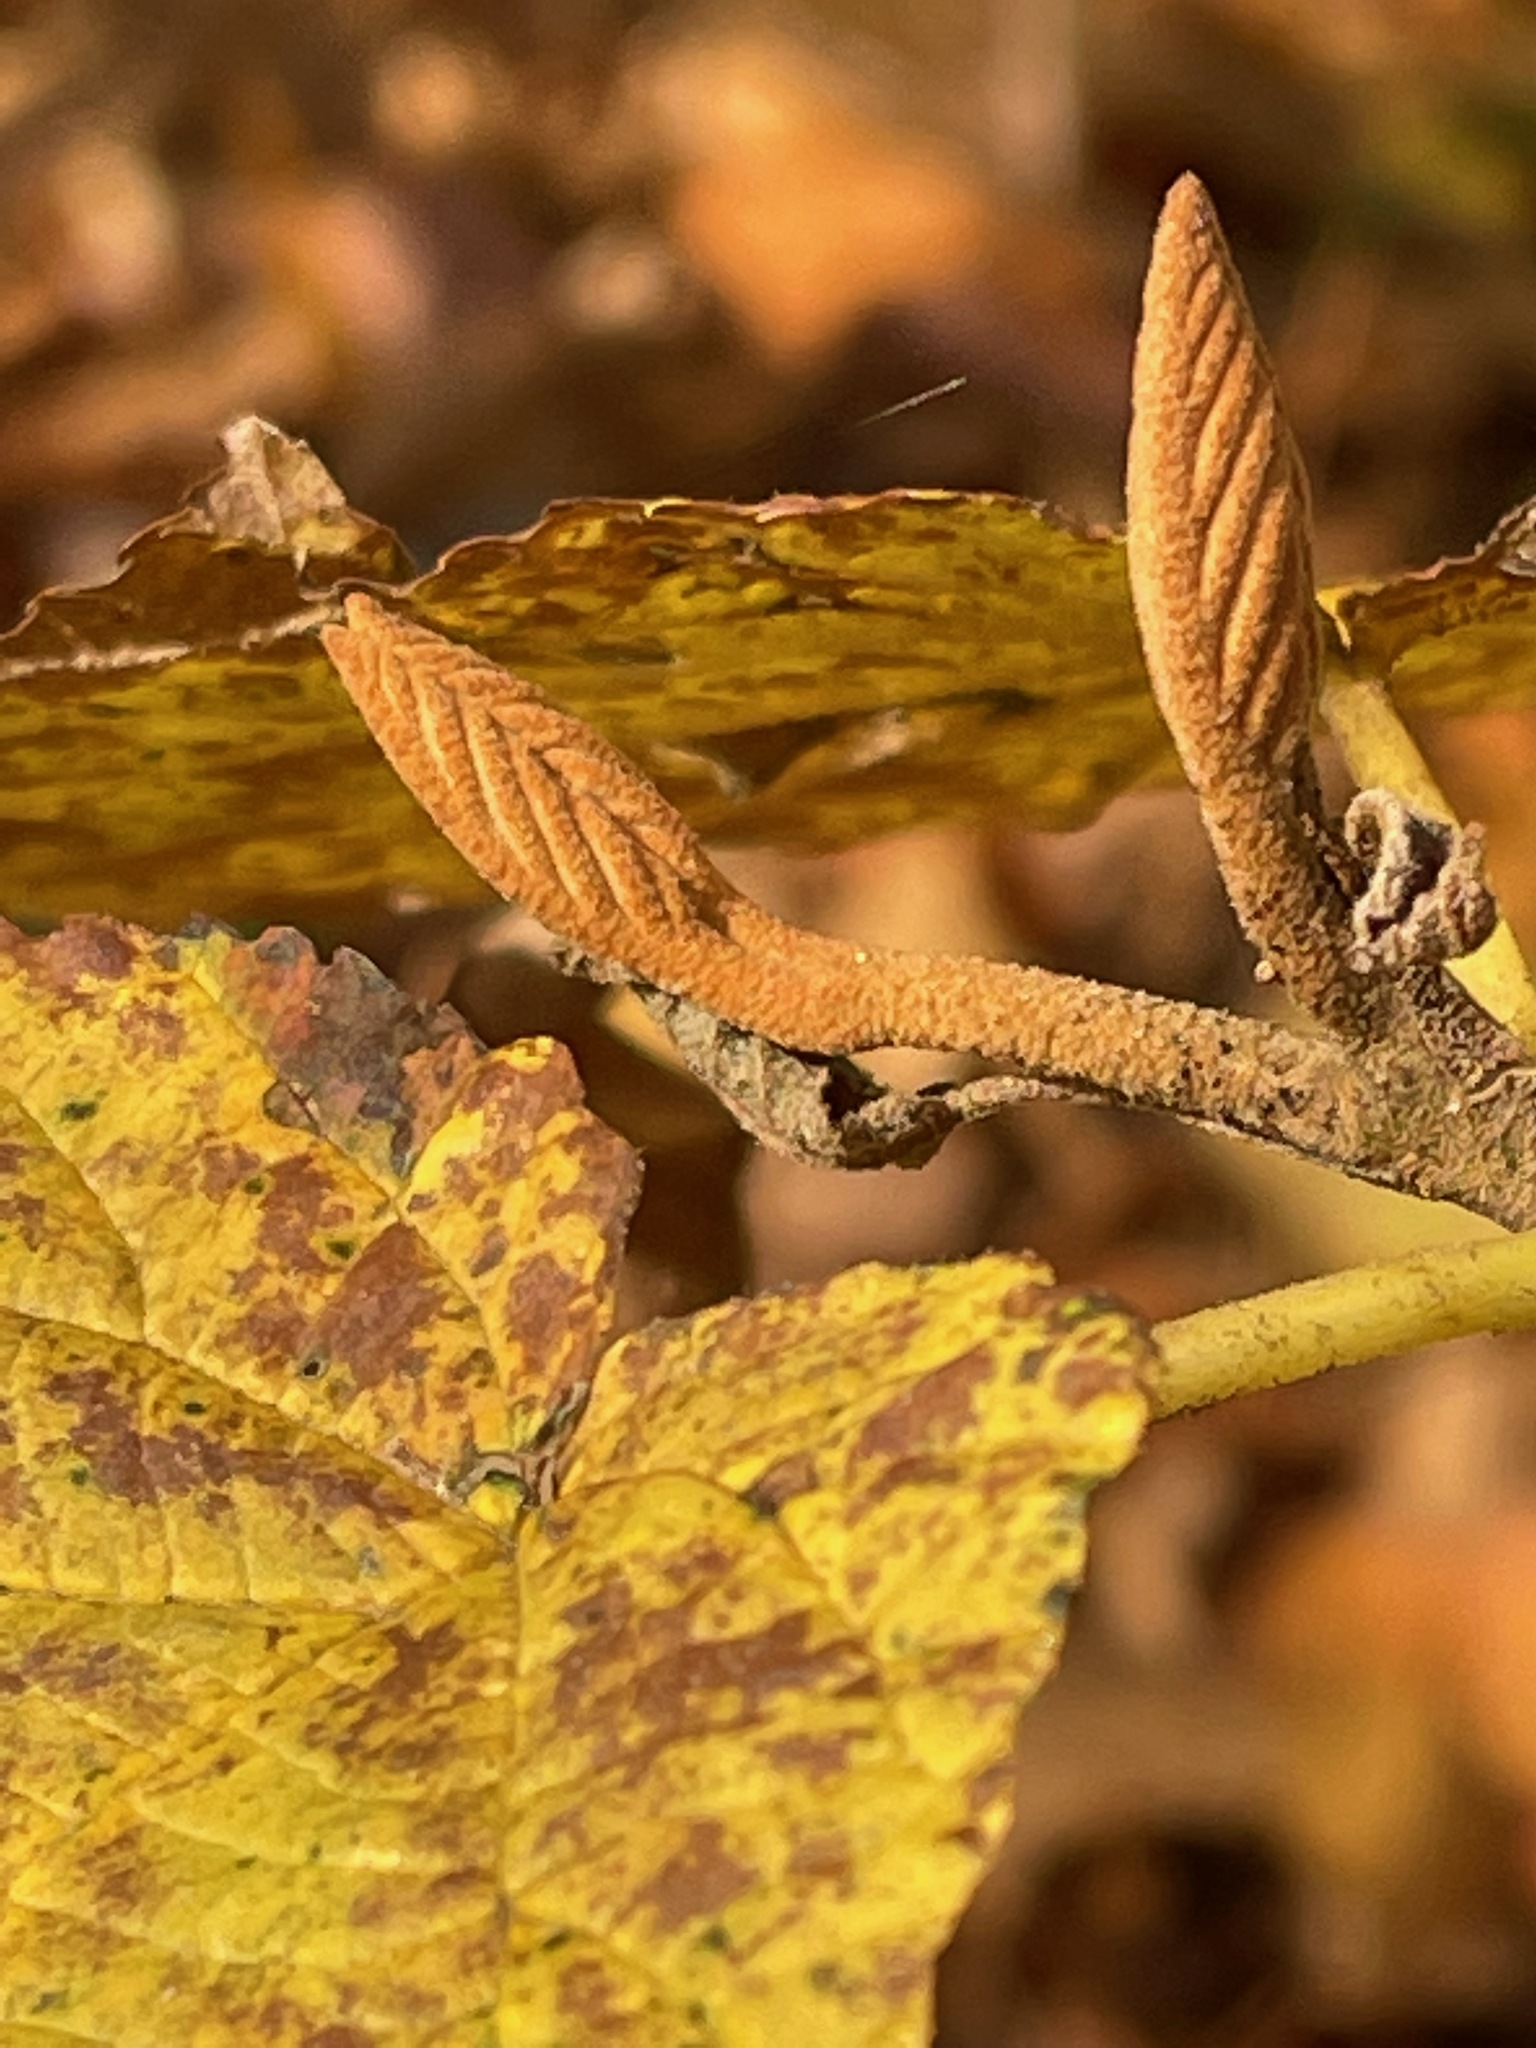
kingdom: Plantae
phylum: Tracheophyta
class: Magnoliopsida
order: Dipsacales
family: Viburnaceae
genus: Viburnum
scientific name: Viburnum lantanoides
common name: Hobblebush
